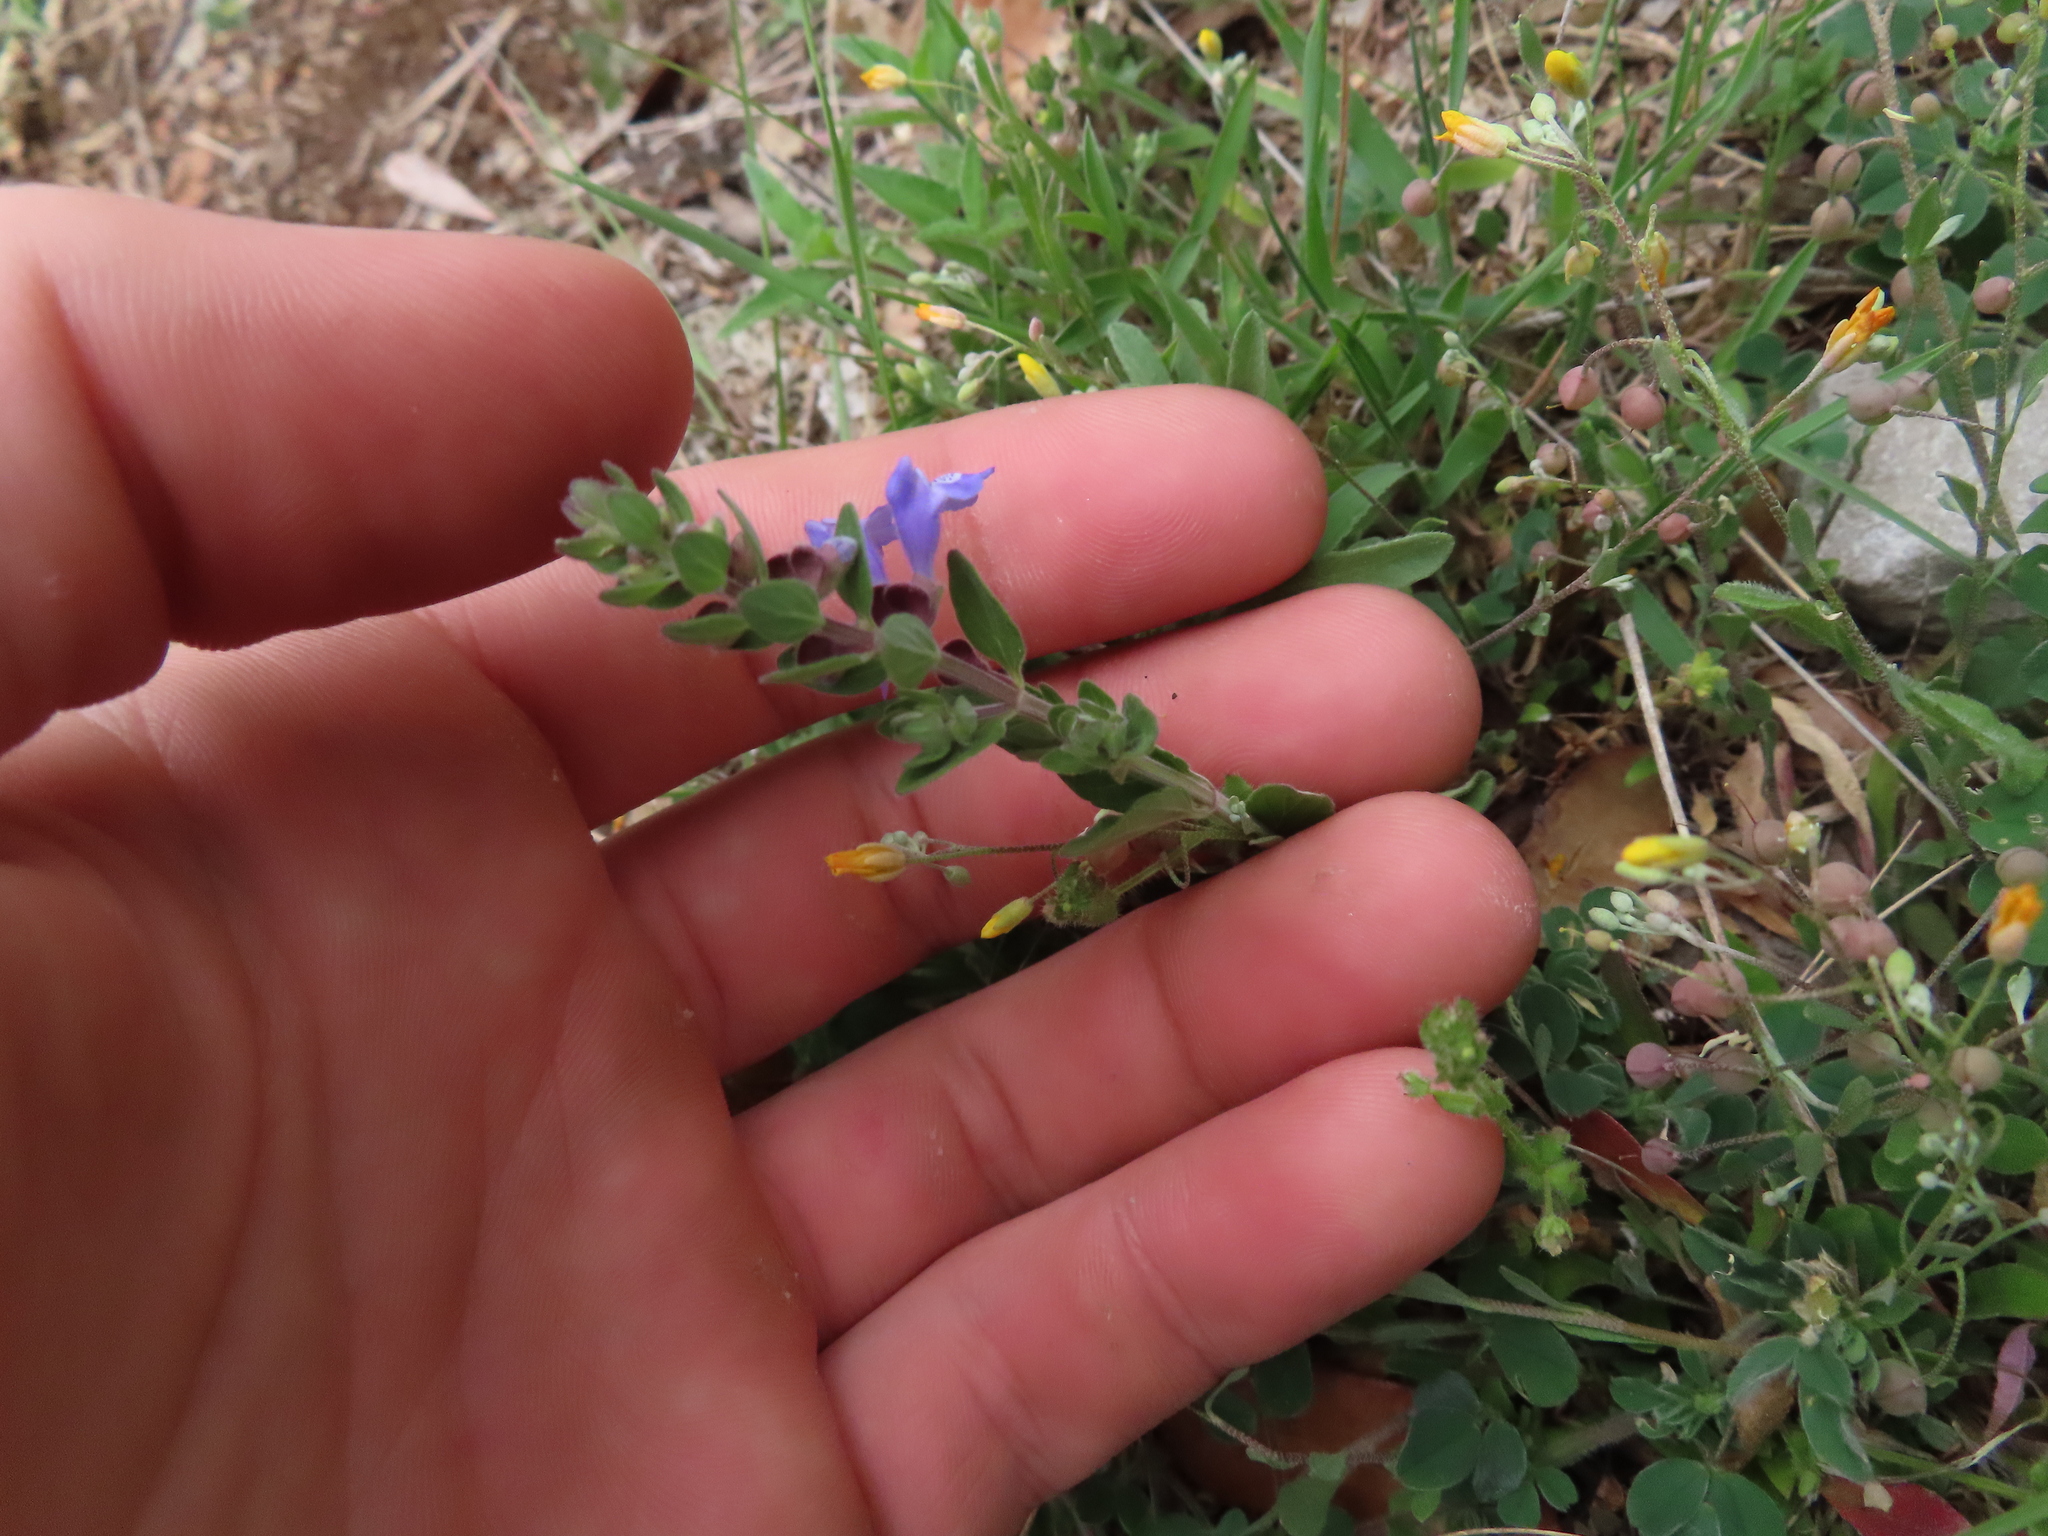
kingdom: Plantae
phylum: Tracheophyta
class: Magnoliopsida
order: Lamiales
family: Lamiaceae
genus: Scutellaria
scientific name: Scutellaria drummondii
